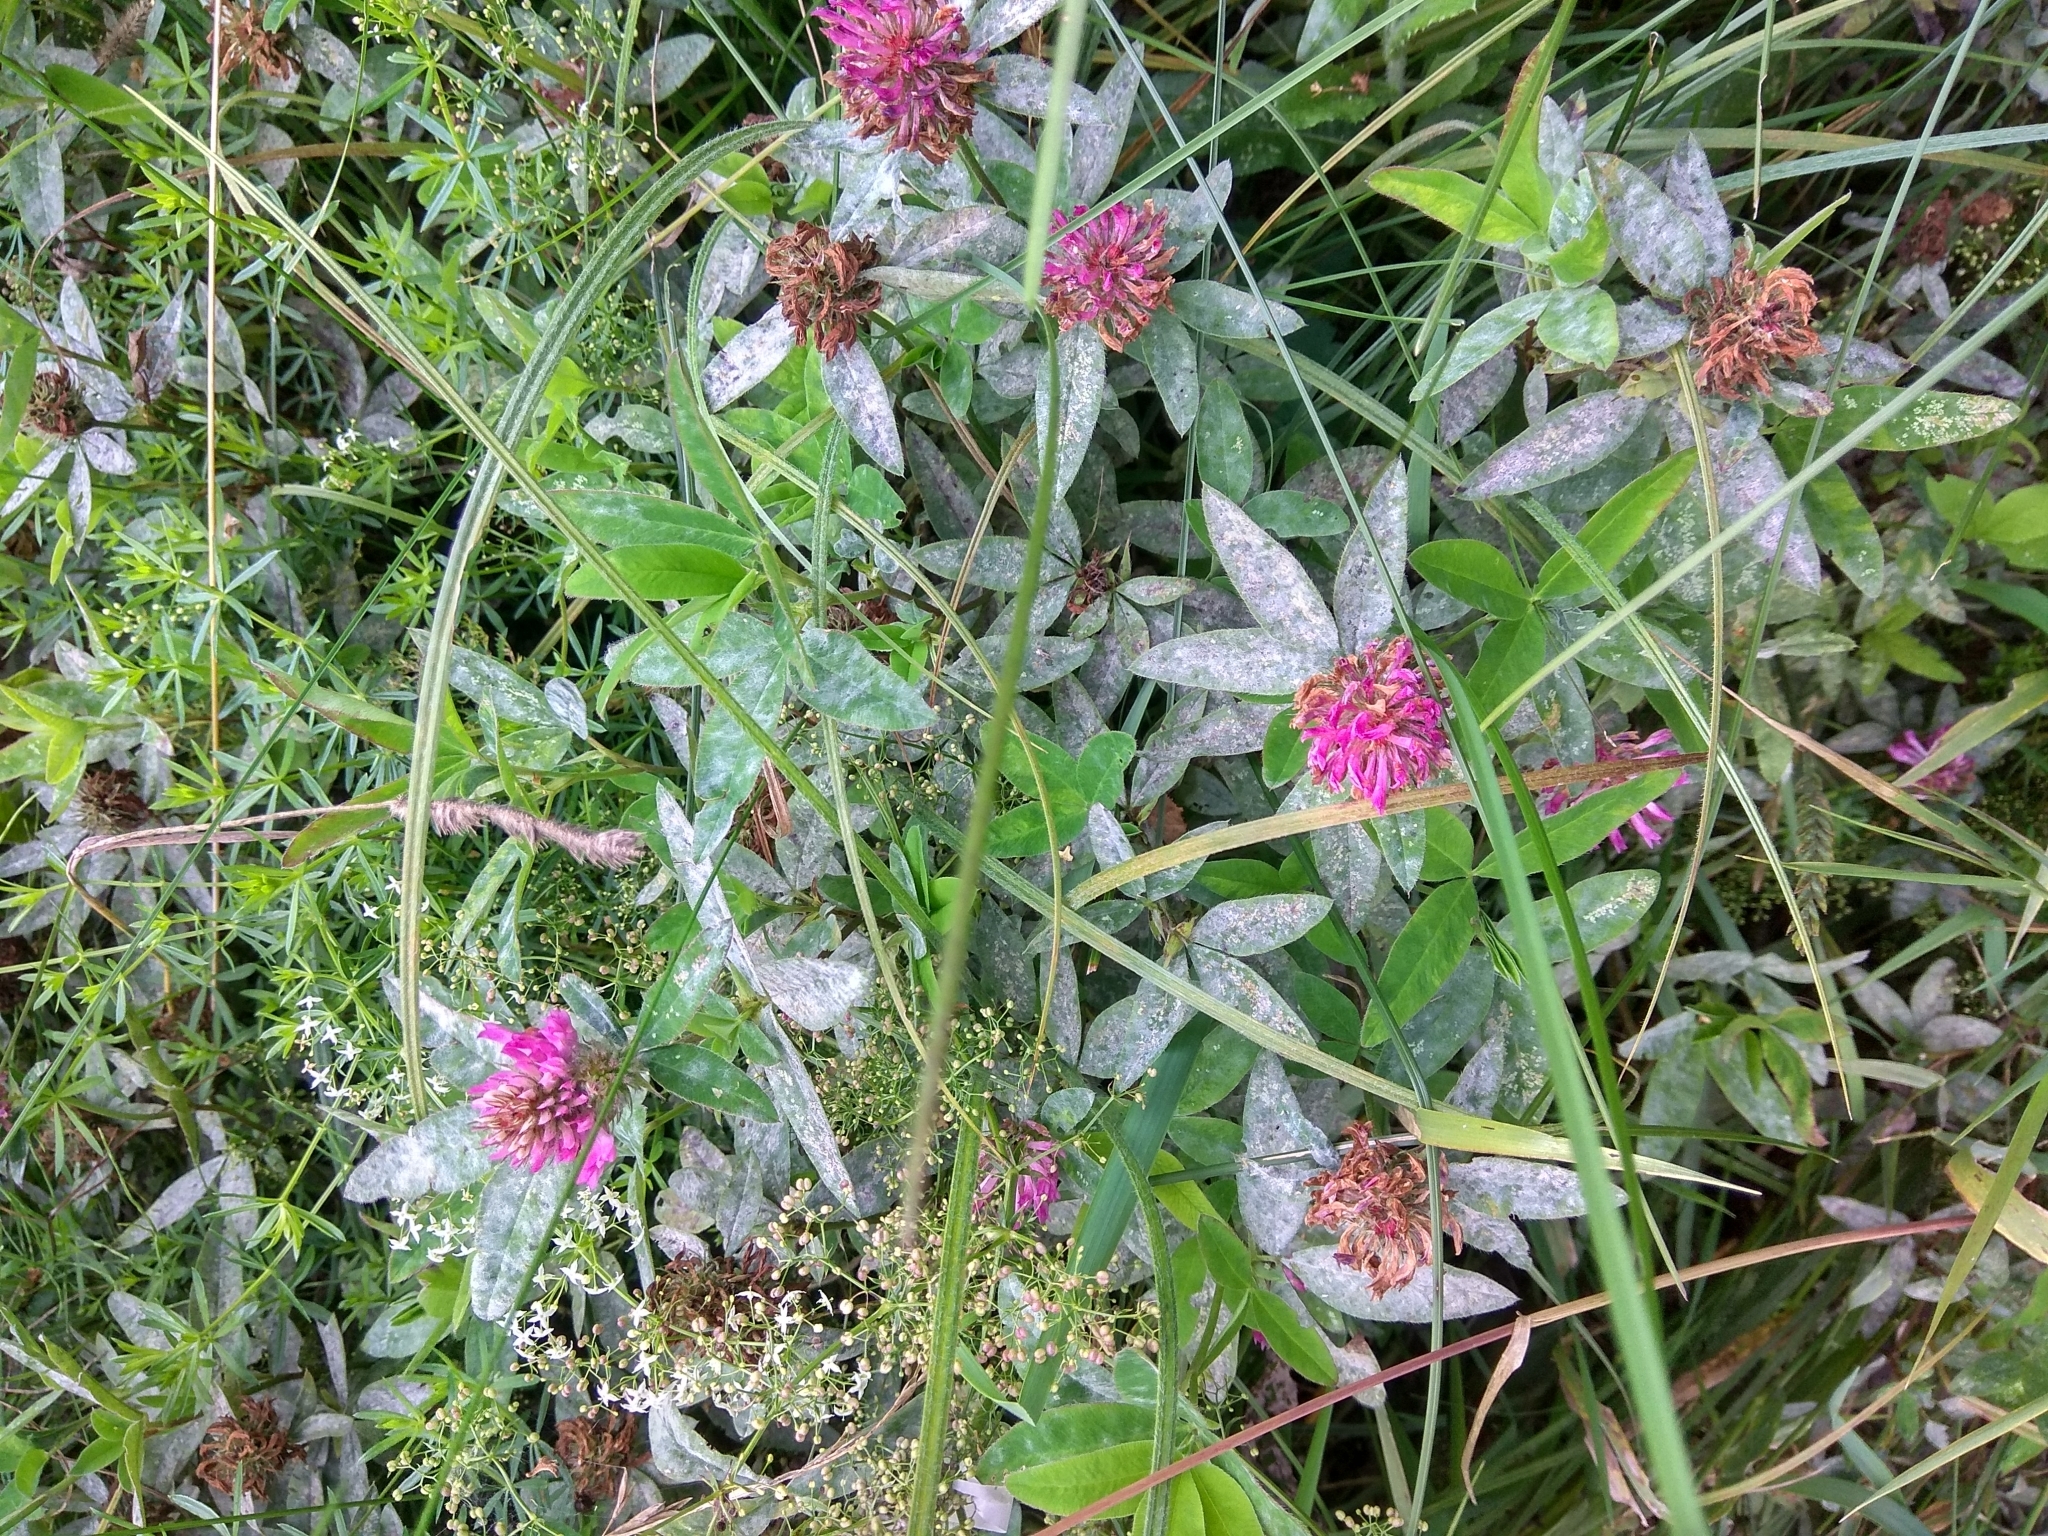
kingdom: Plantae
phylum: Tracheophyta
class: Magnoliopsida
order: Fabales
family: Fabaceae
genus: Trifolium
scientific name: Trifolium medium
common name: Zigzag clover
